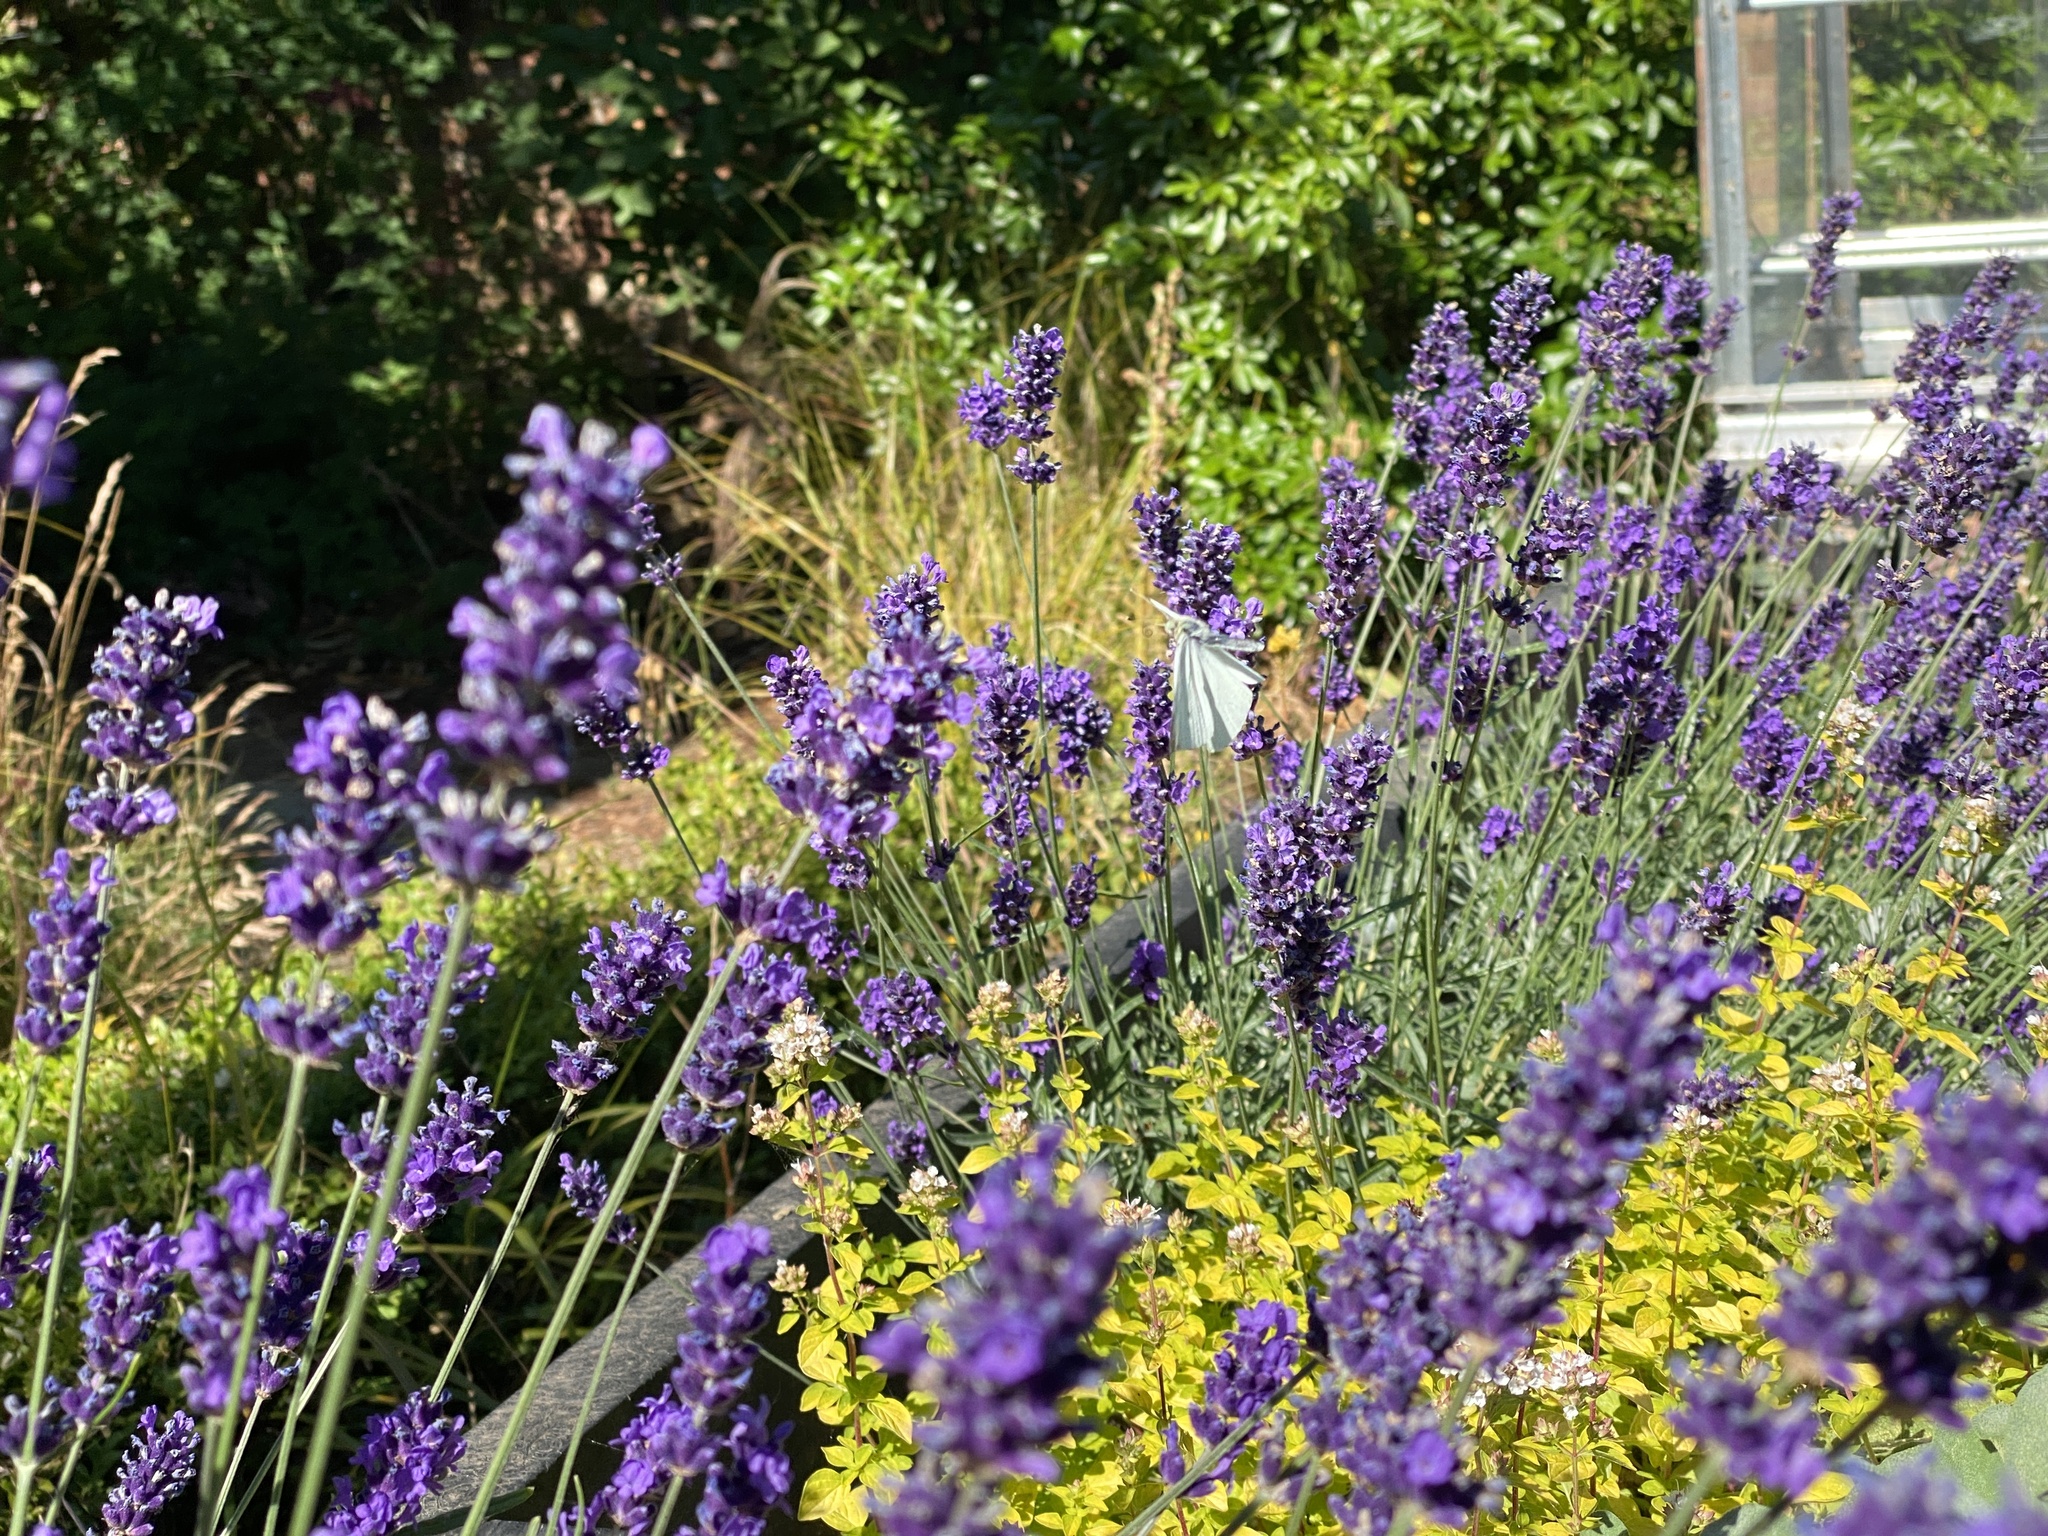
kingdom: Animalia
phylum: Arthropoda
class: Insecta
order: Lepidoptera
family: Pieridae
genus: Pieris
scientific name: Pieris rapae
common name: Small white
